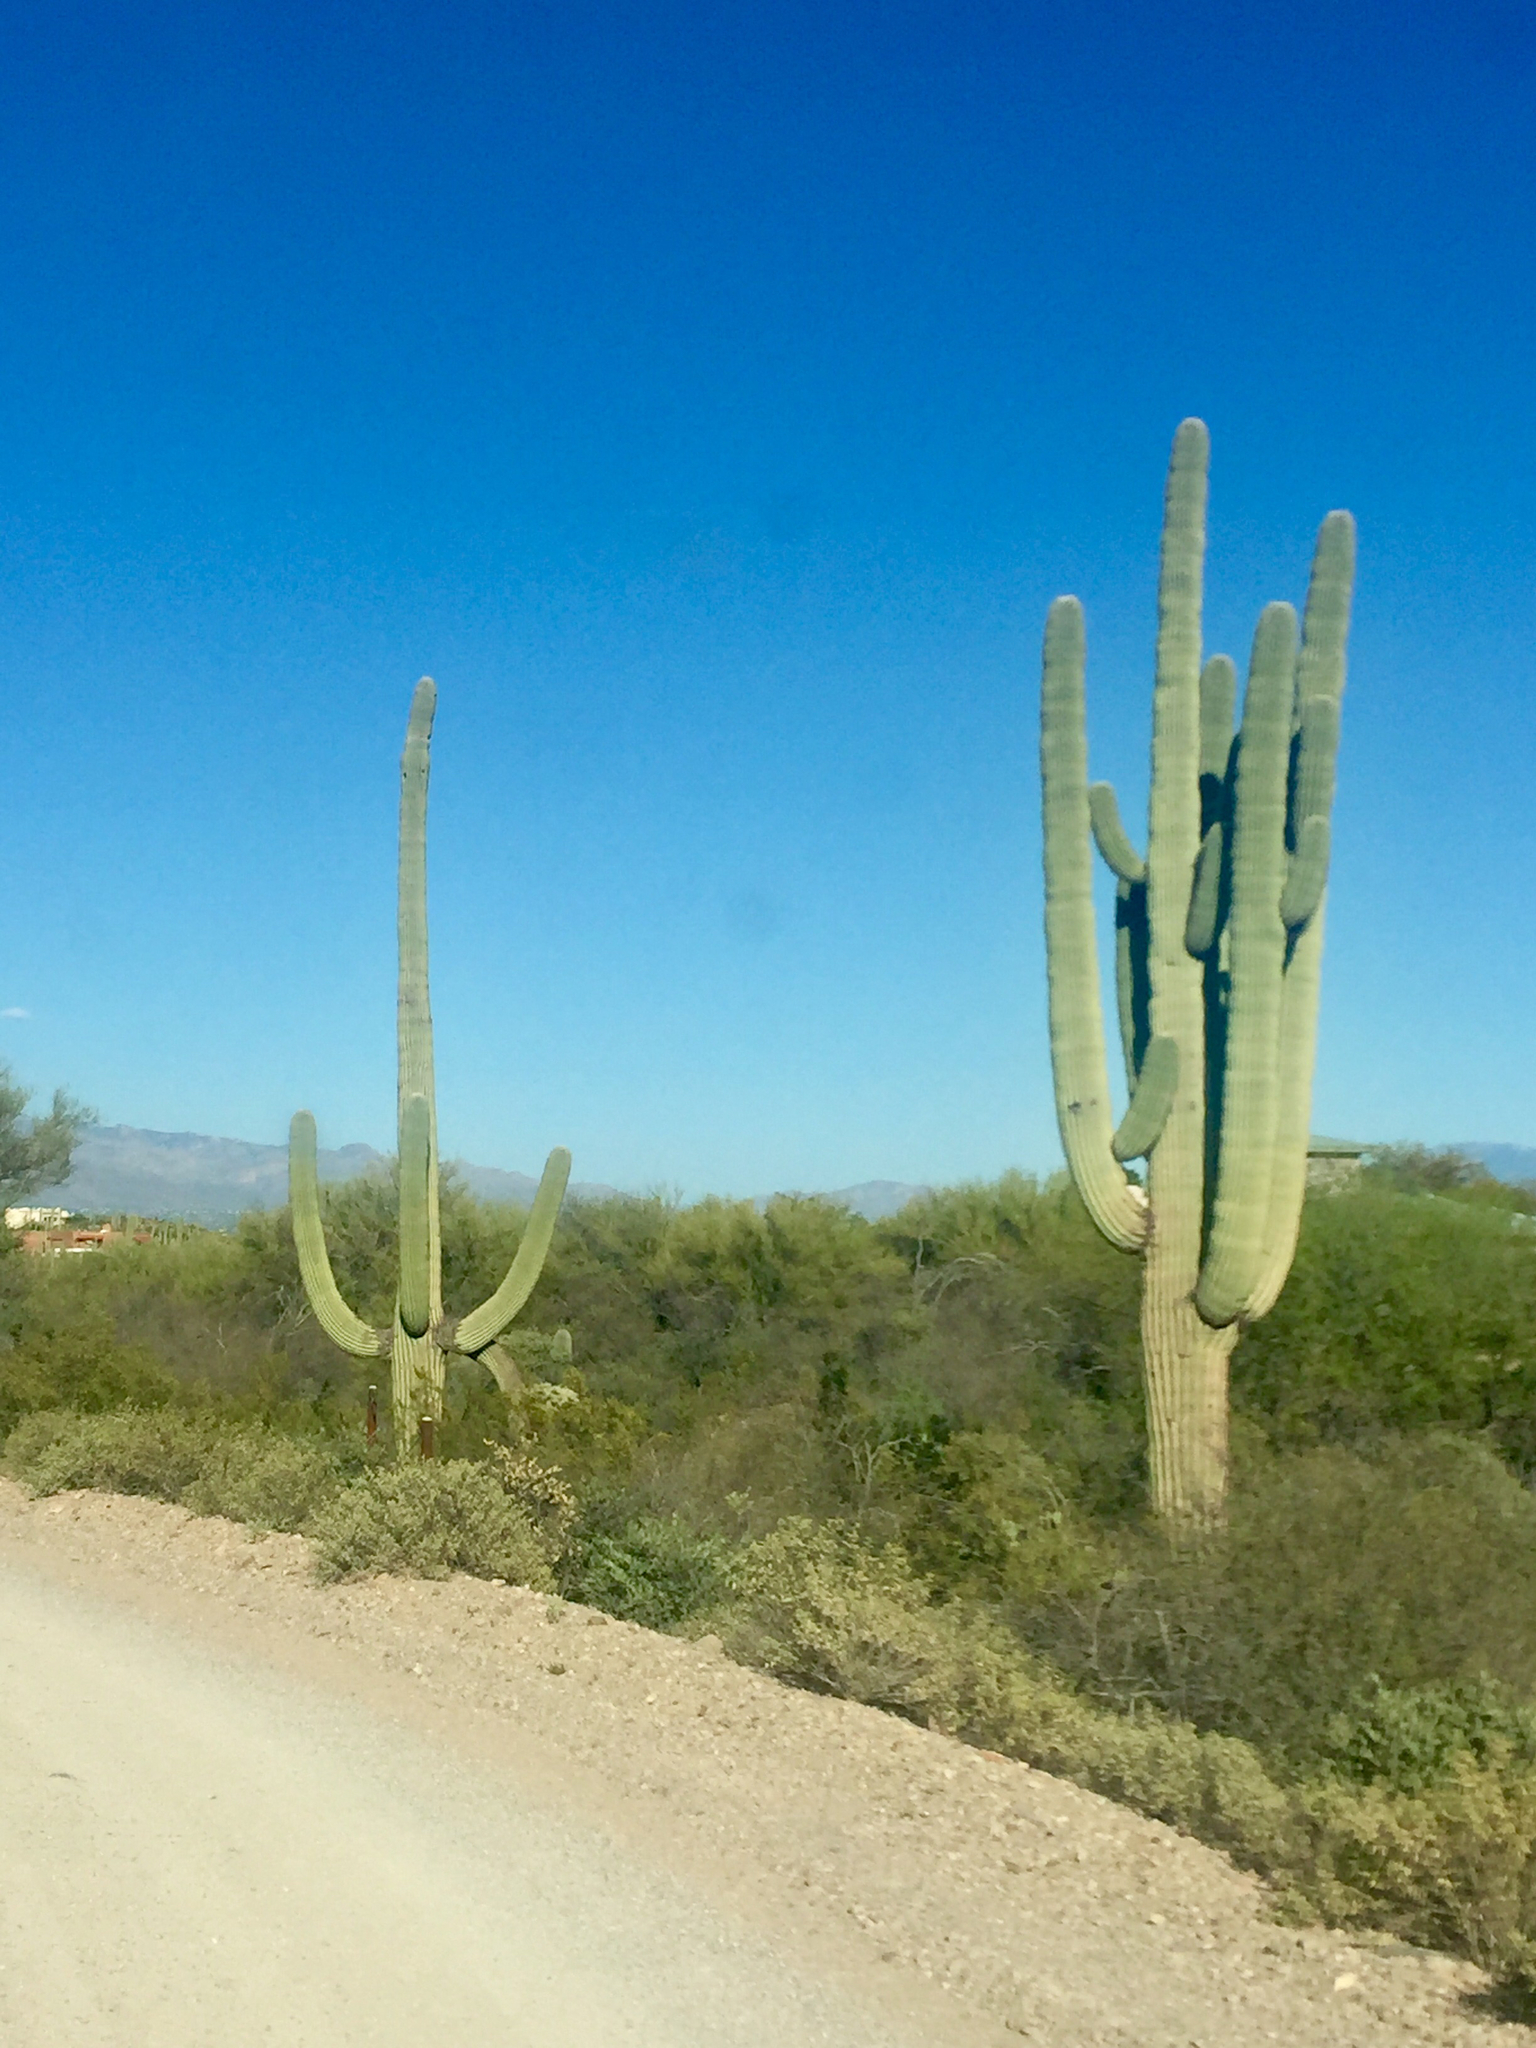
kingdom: Plantae
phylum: Tracheophyta
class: Magnoliopsida
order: Caryophyllales
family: Cactaceae
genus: Carnegiea
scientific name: Carnegiea gigantea
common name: Saguaro
